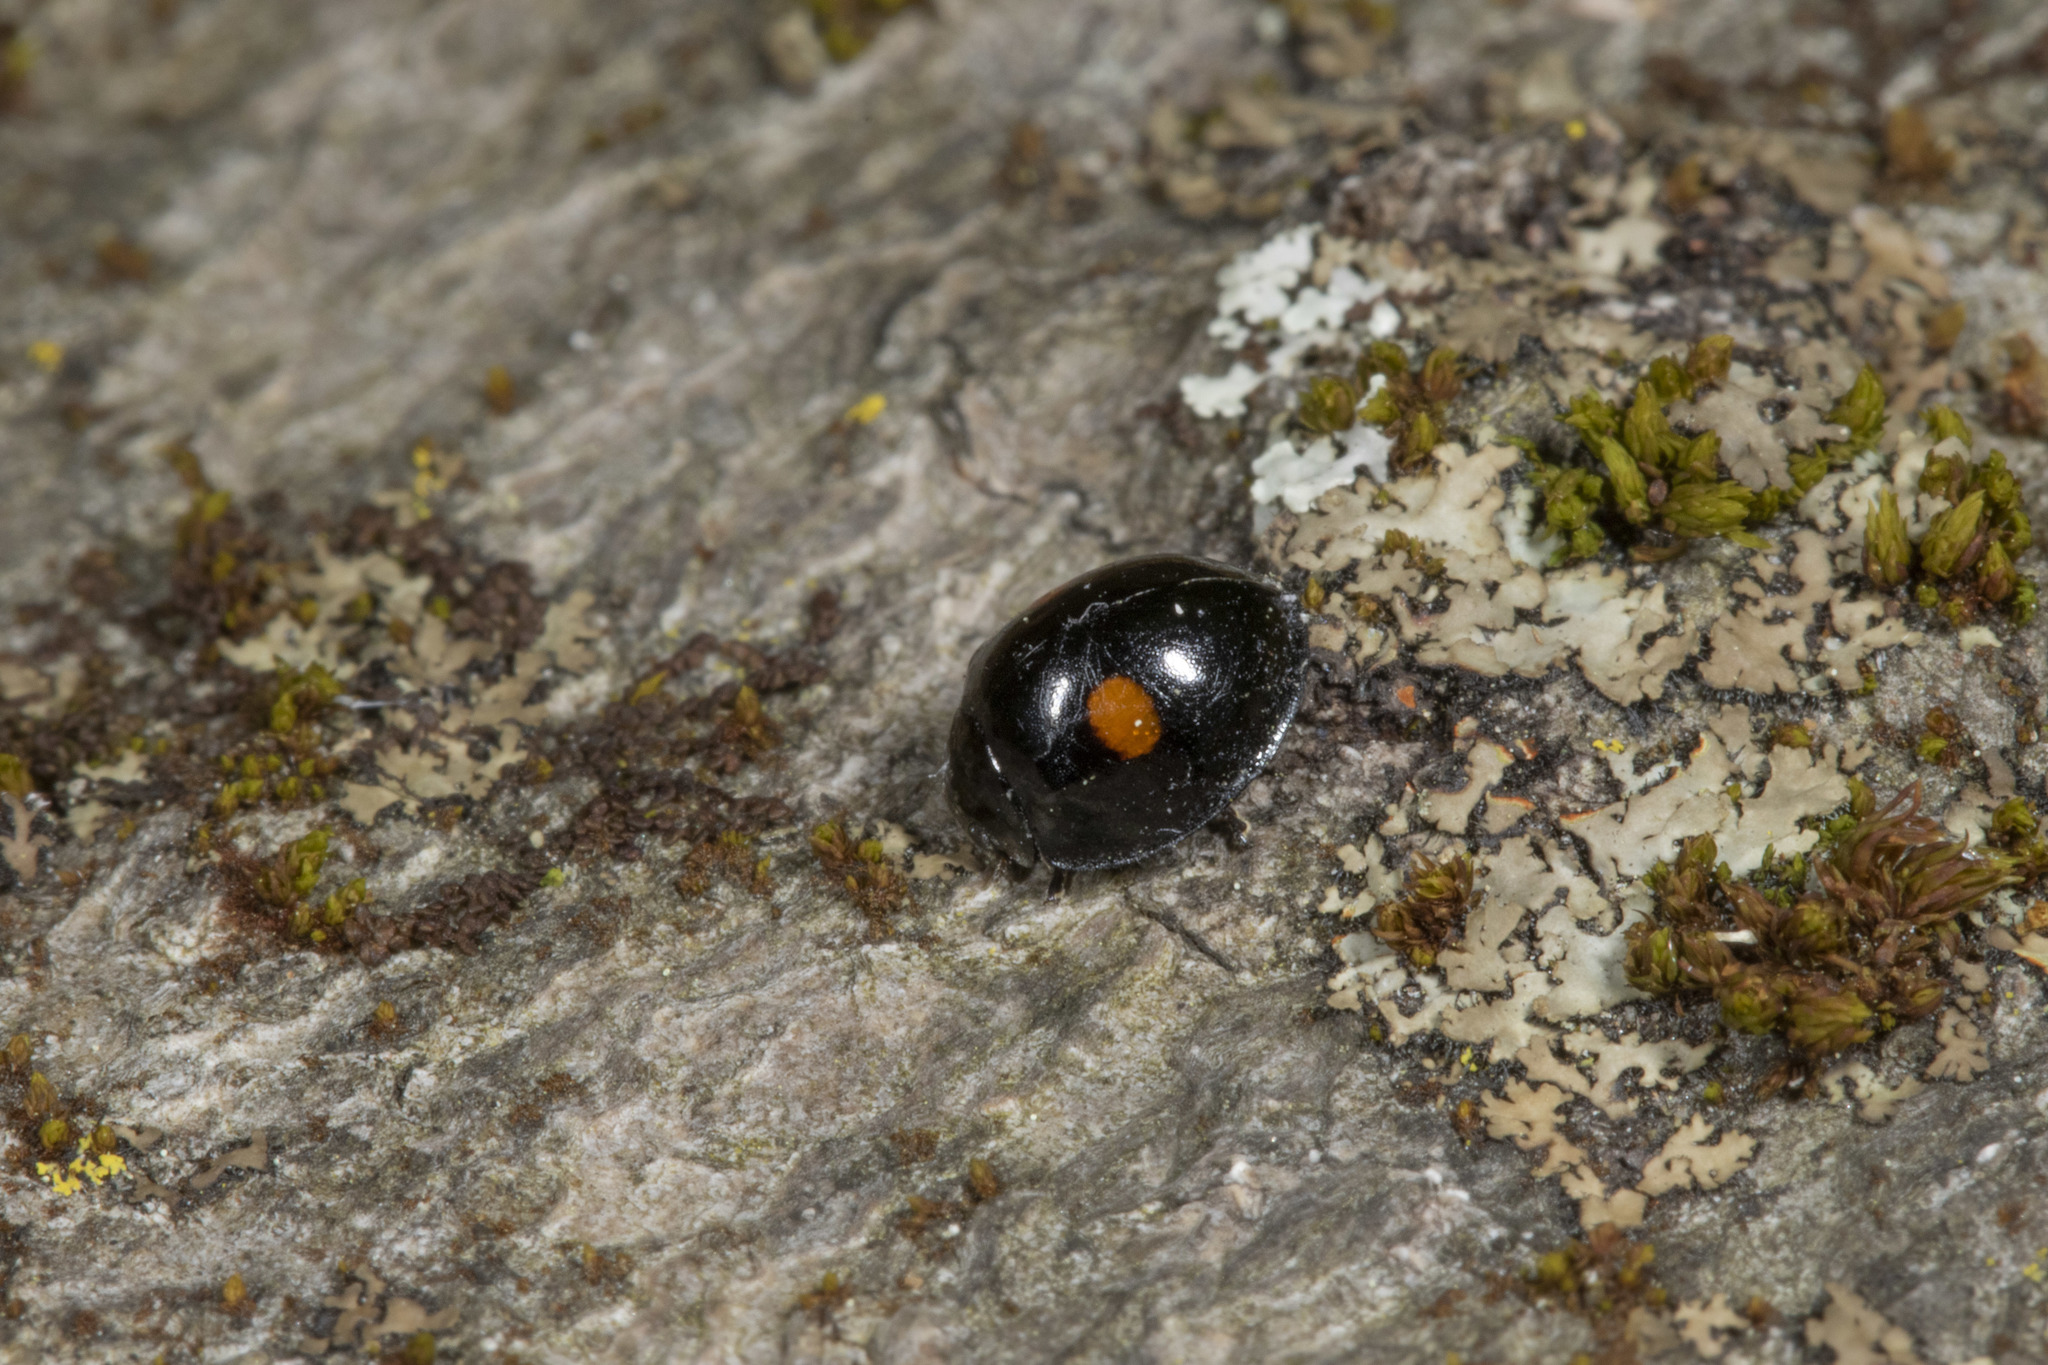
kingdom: Animalia
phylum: Arthropoda
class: Insecta
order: Coleoptera
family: Coccinellidae
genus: Chilocorus
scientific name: Chilocorus stigma
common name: Twicestabbed lady beetle
